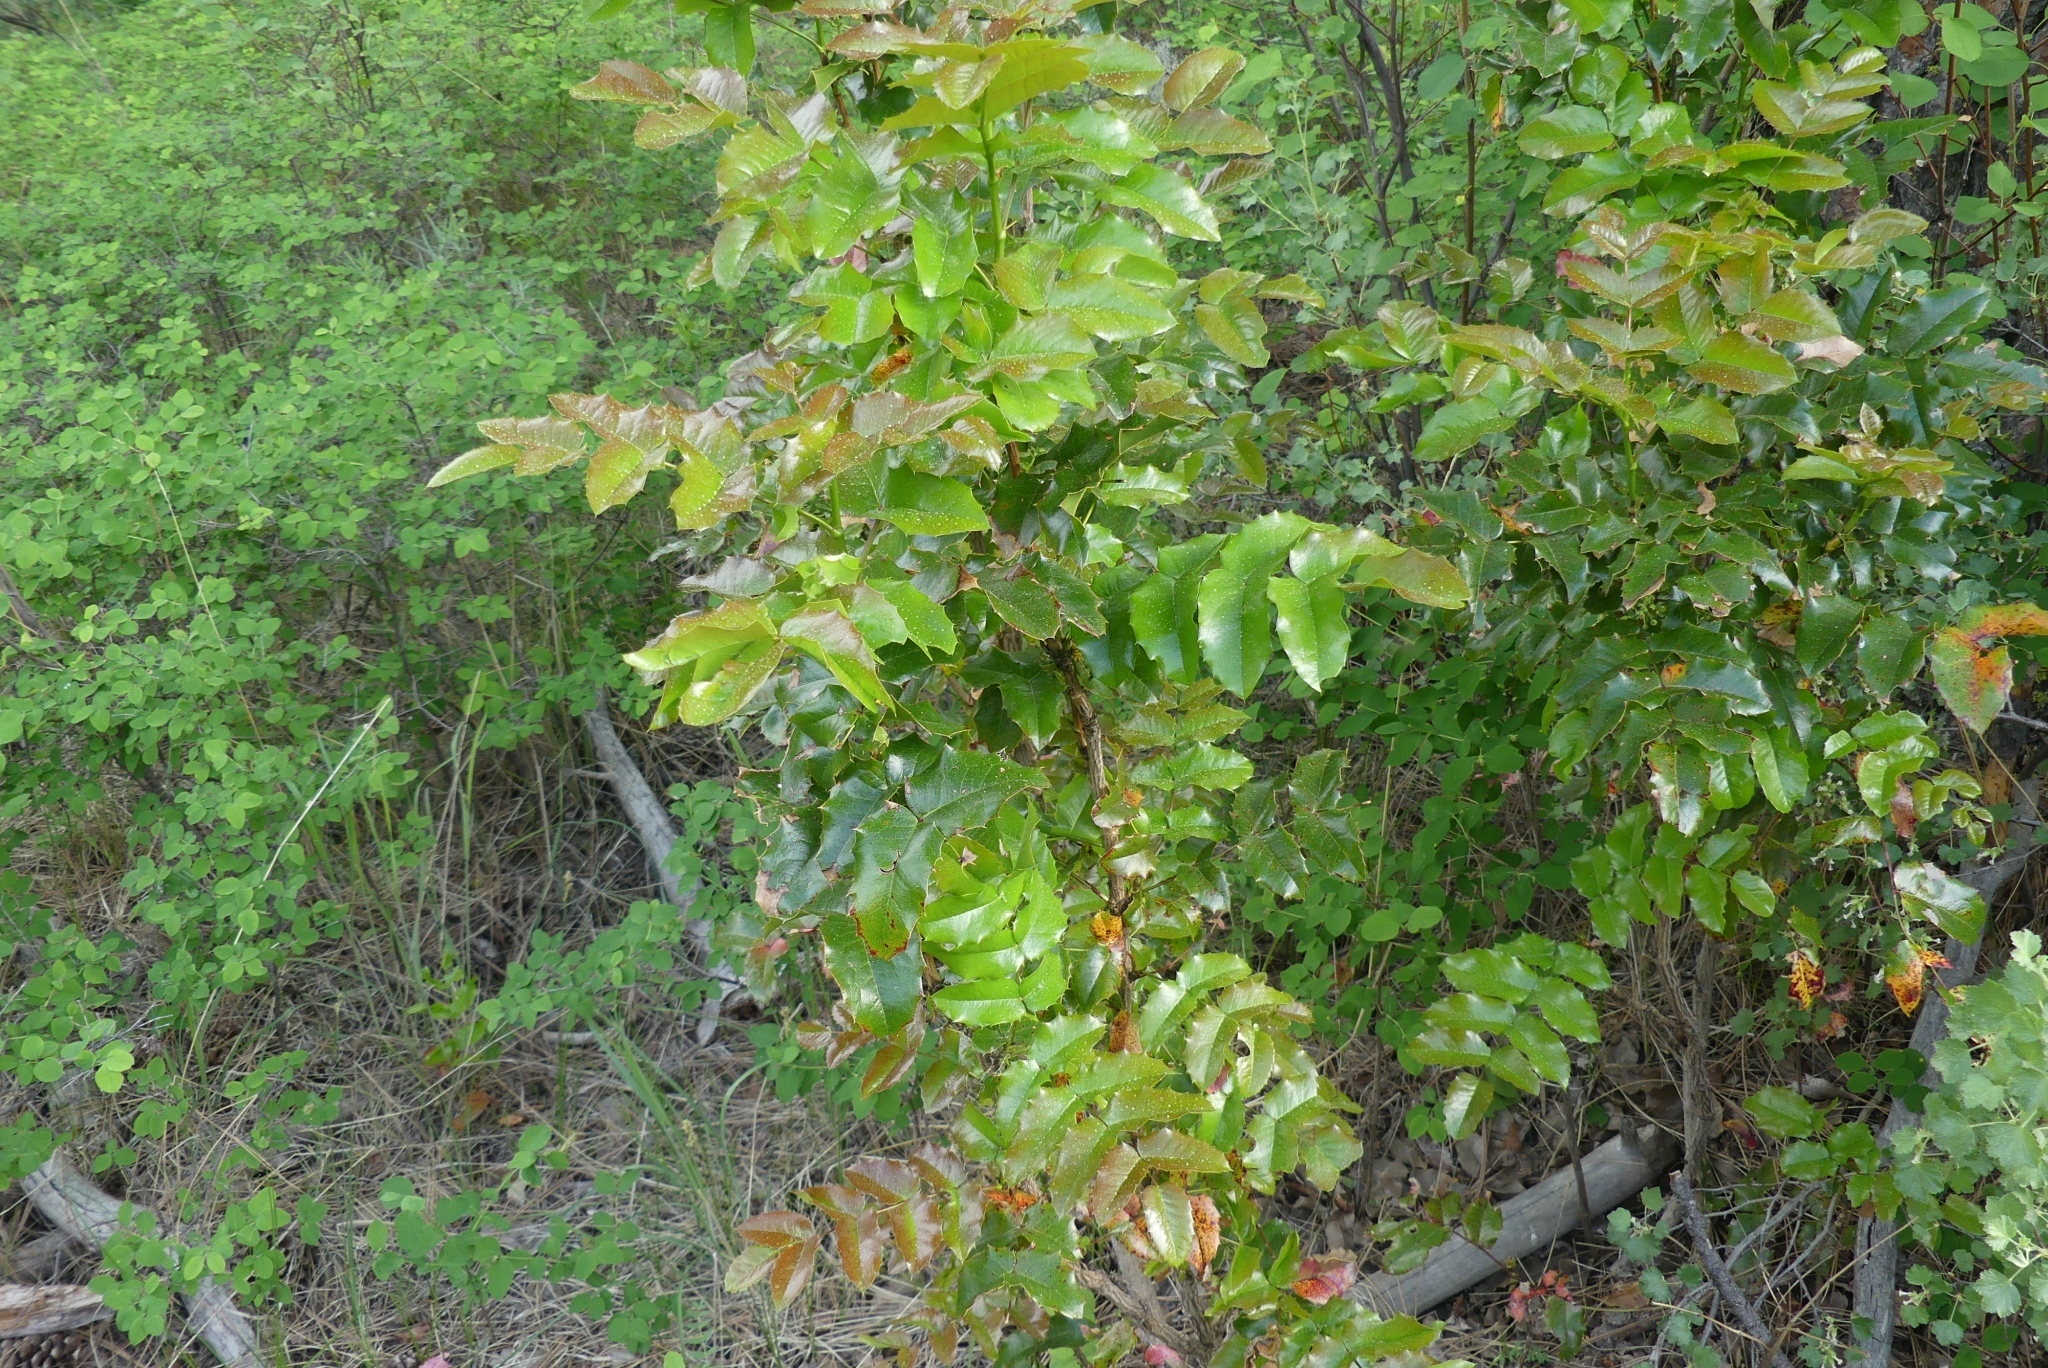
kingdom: Plantae
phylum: Tracheophyta
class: Magnoliopsida
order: Ranunculales
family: Berberidaceae
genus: Mahonia
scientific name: Mahonia aquifolium
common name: Oregon-grape
